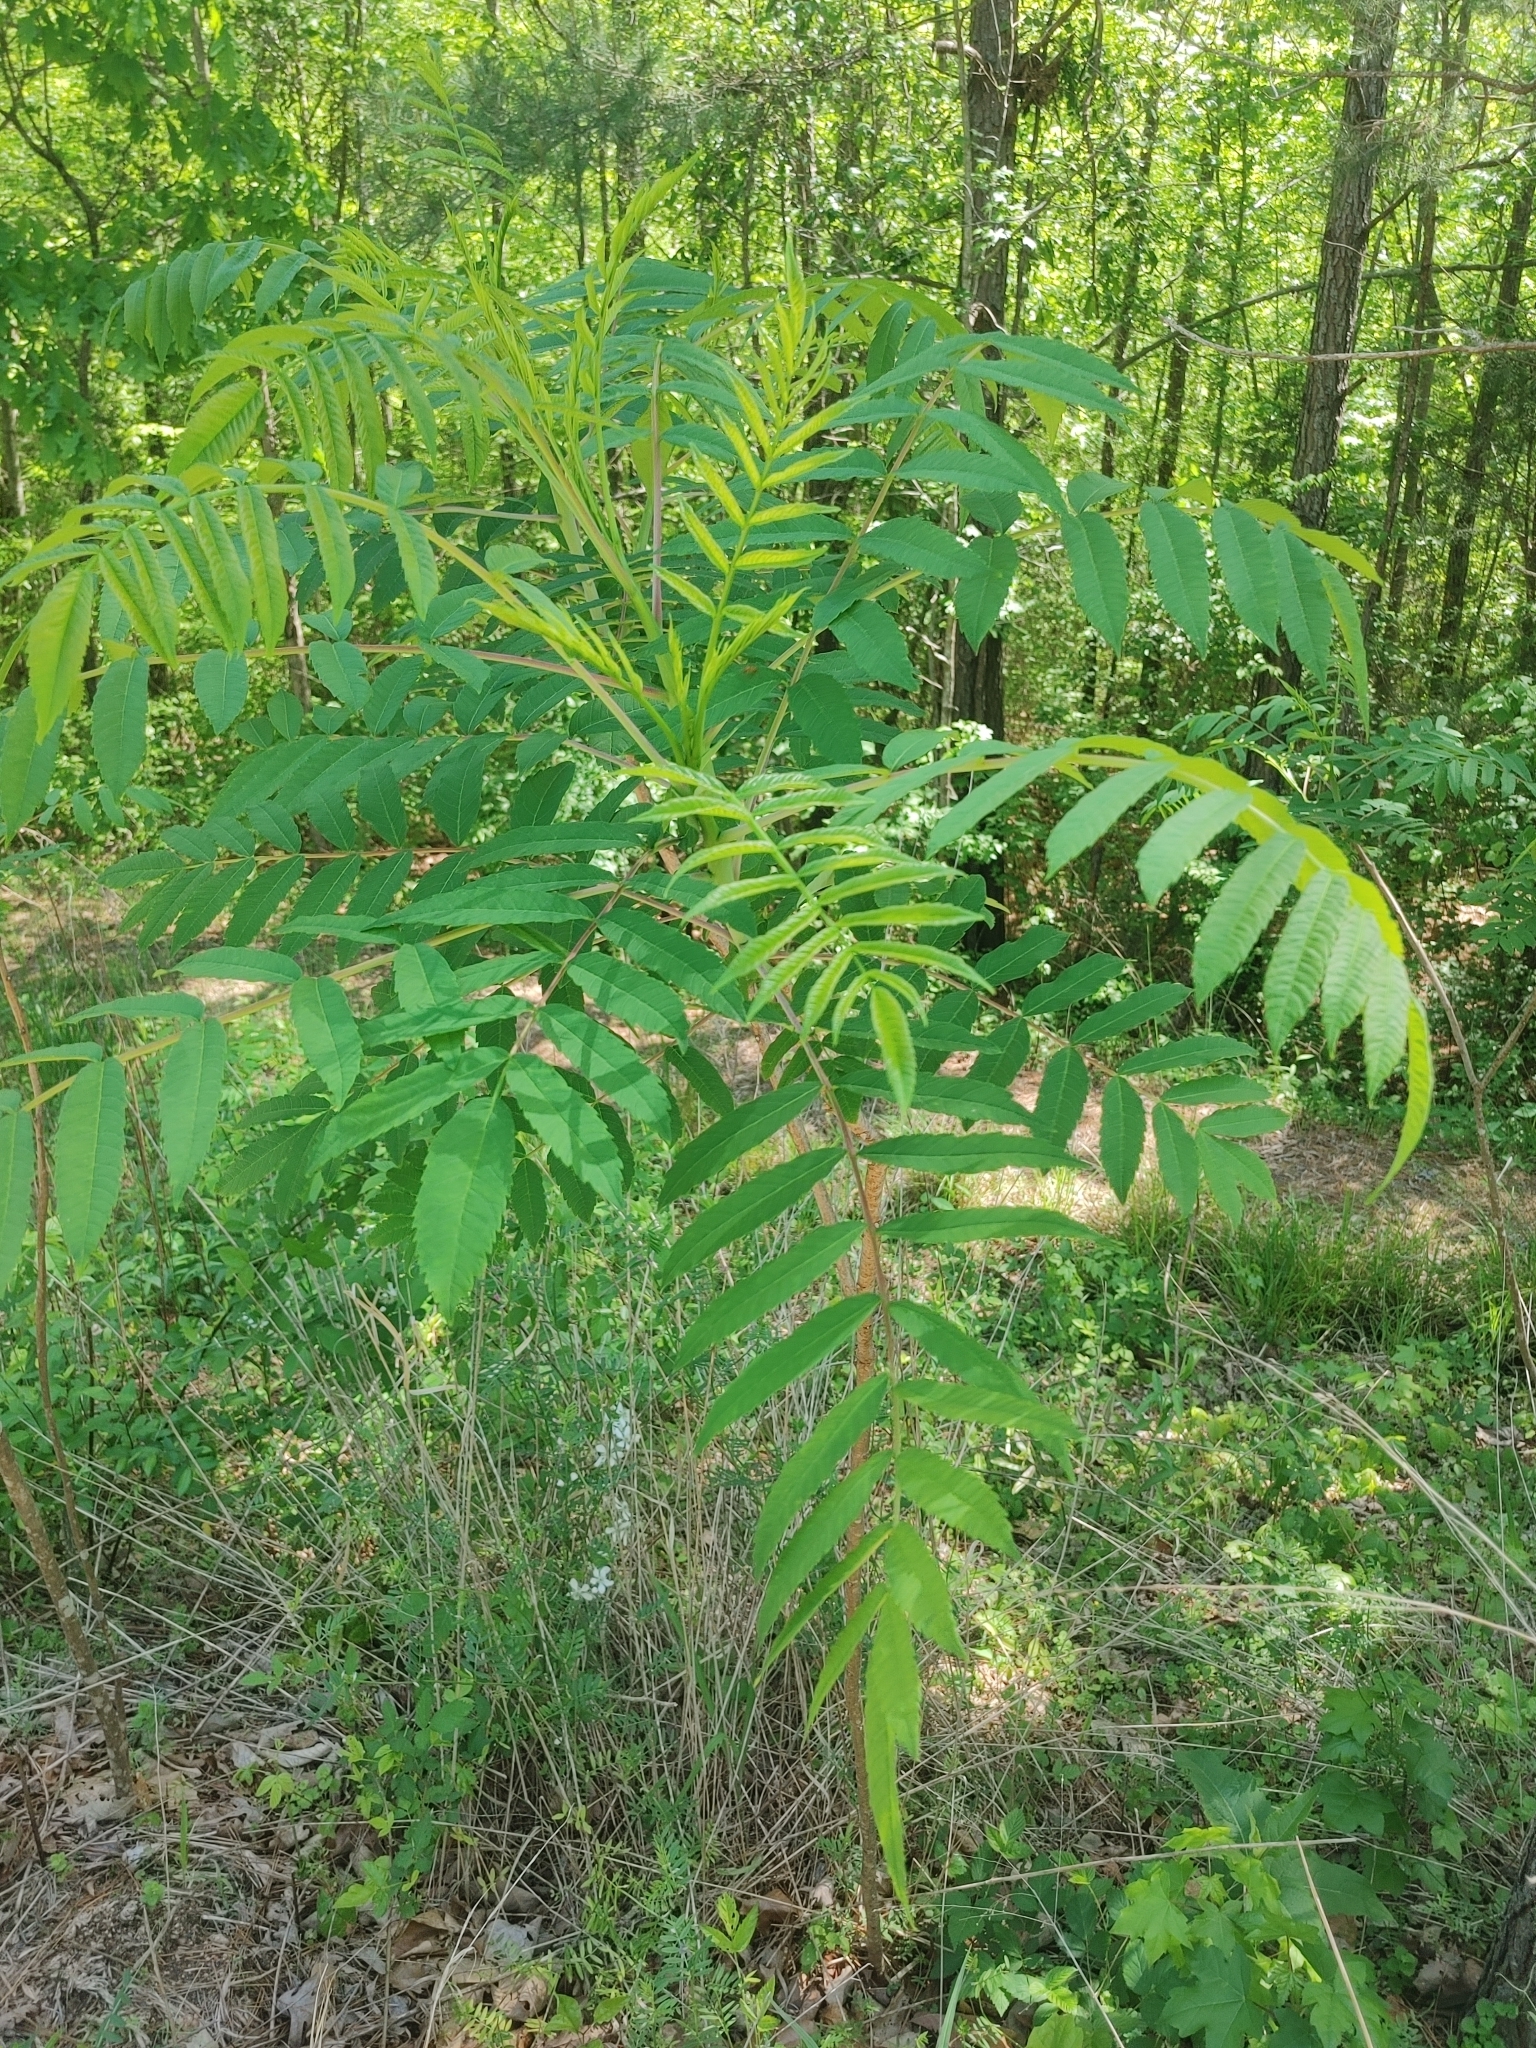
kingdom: Plantae
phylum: Tracheophyta
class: Magnoliopsida
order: Sapindales
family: Anacardiaceae
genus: Rhus
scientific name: Rhus glabra
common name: Scarlet sumac
